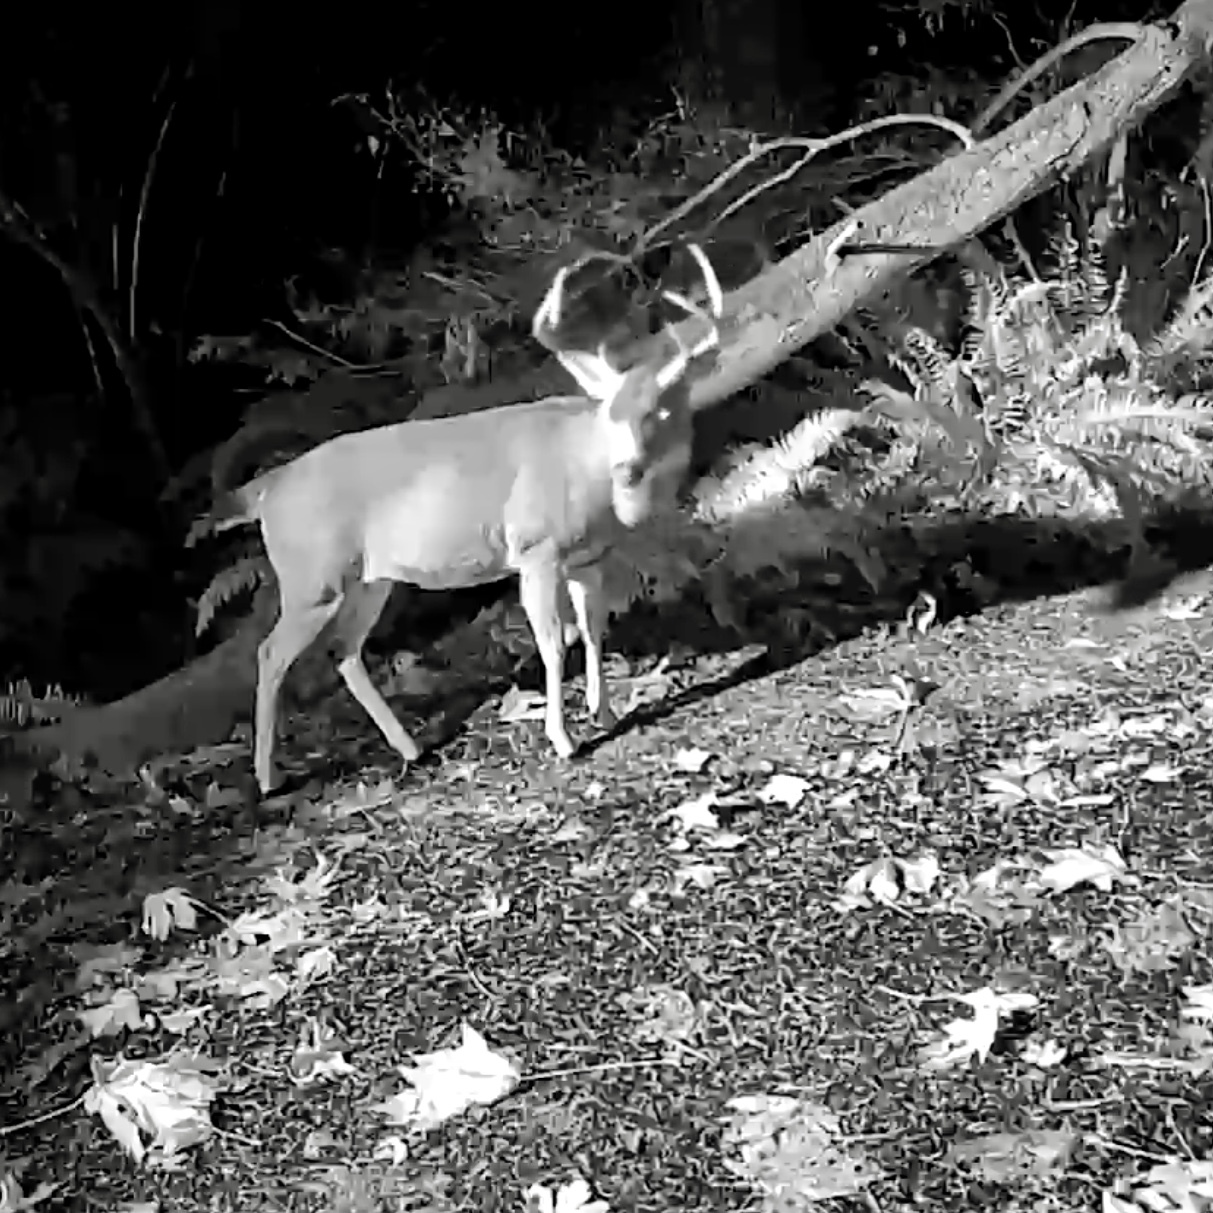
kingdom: Animalia
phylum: Chordata
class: Mammalia
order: Artiodactyla
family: Cervidae
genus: Odocoileus
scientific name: Odocoileus hemionus
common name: Mule deer
